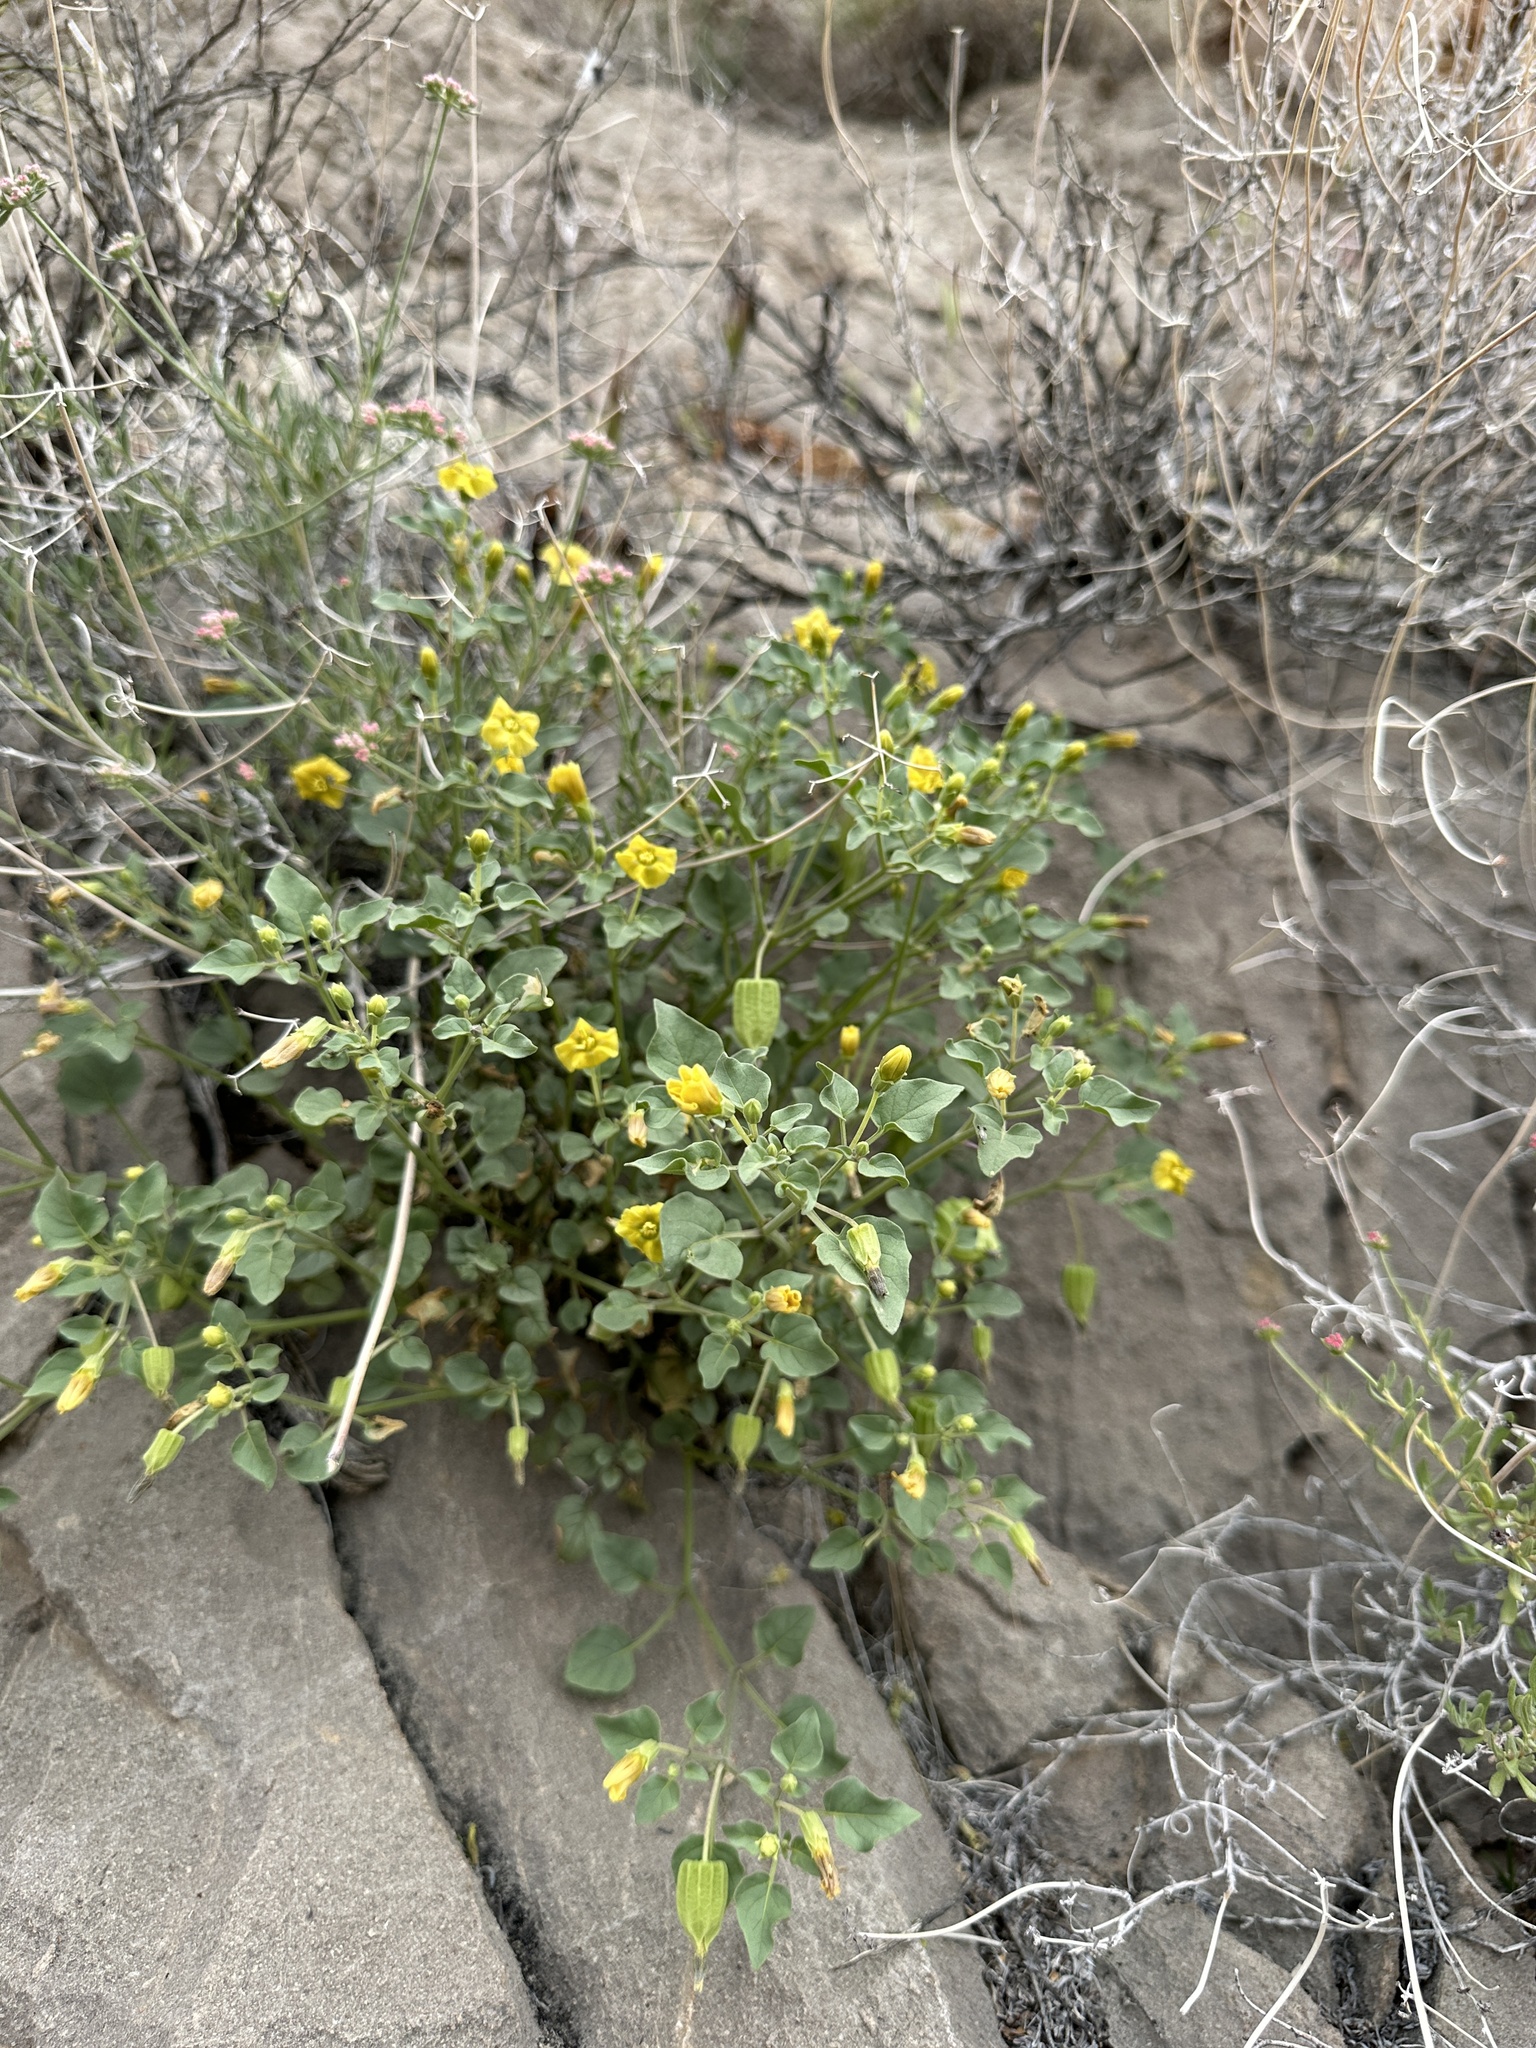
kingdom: Plantae
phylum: Tracheophyta
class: Magnoliopsida
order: Solanales
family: Solanaceae
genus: Physalis
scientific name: Physalis crassifolia
